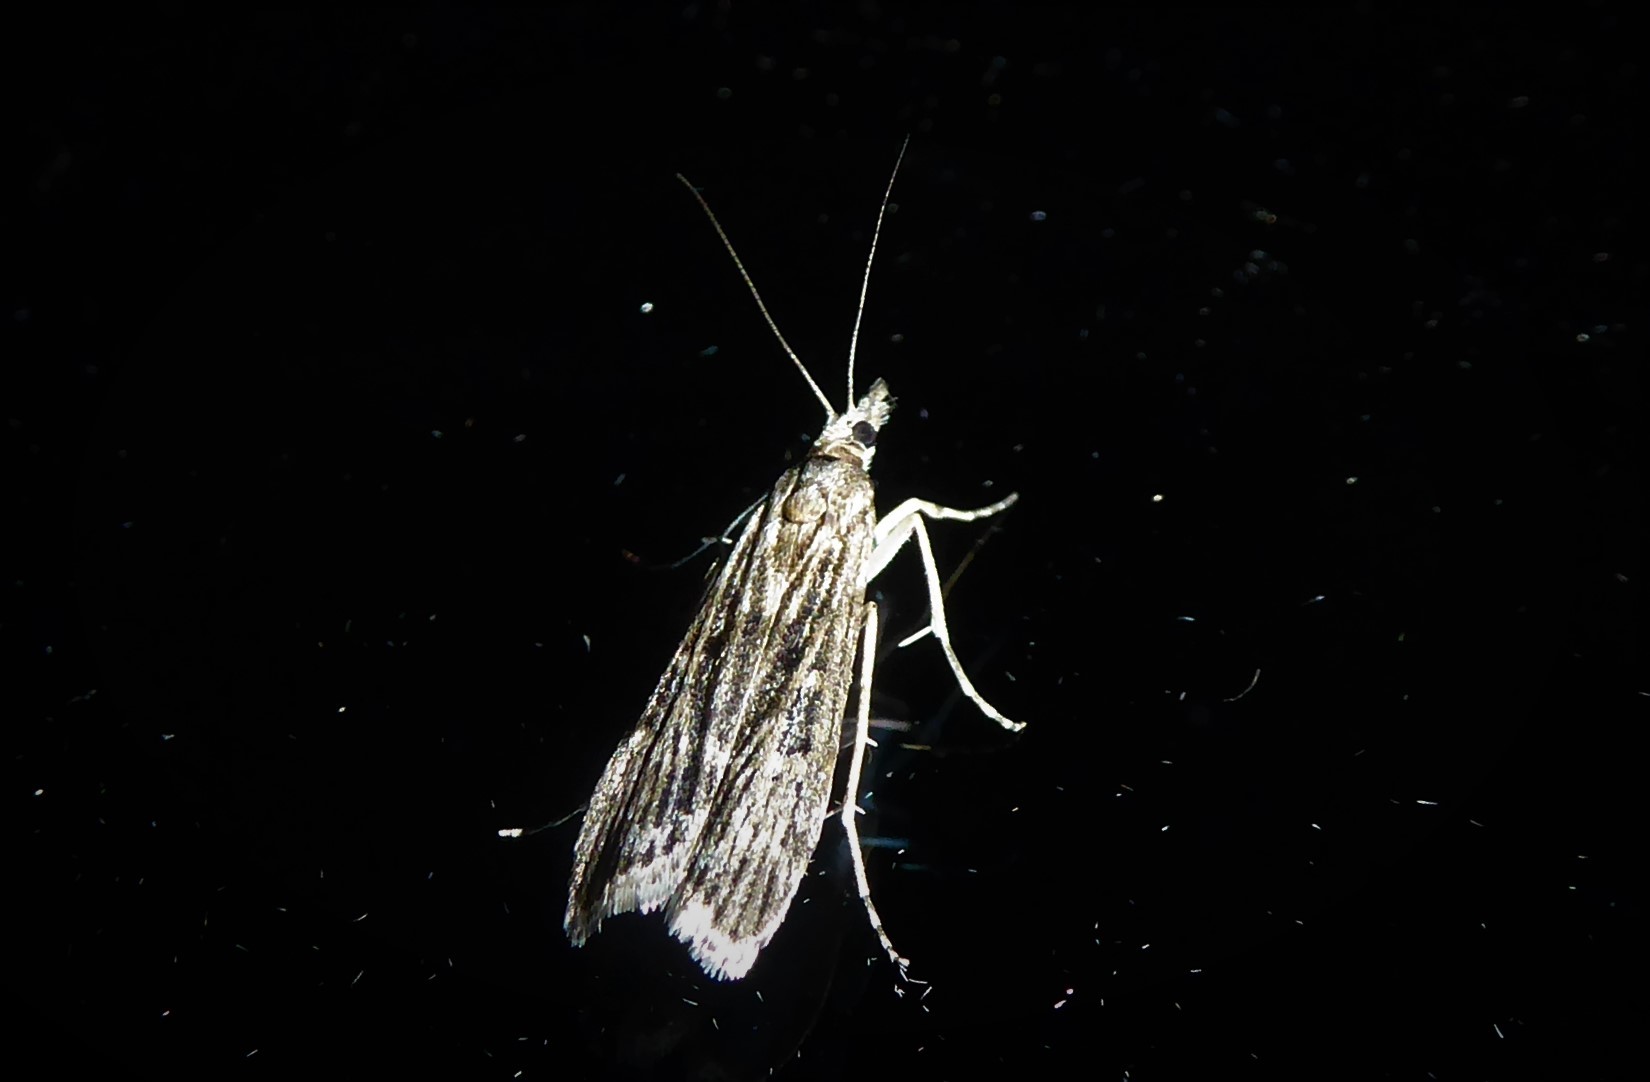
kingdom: Animalia
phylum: Arthropoda
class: Insecta
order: Lepidoptera
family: Crambidae
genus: Eudonia
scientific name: Eudonia atmogramma
